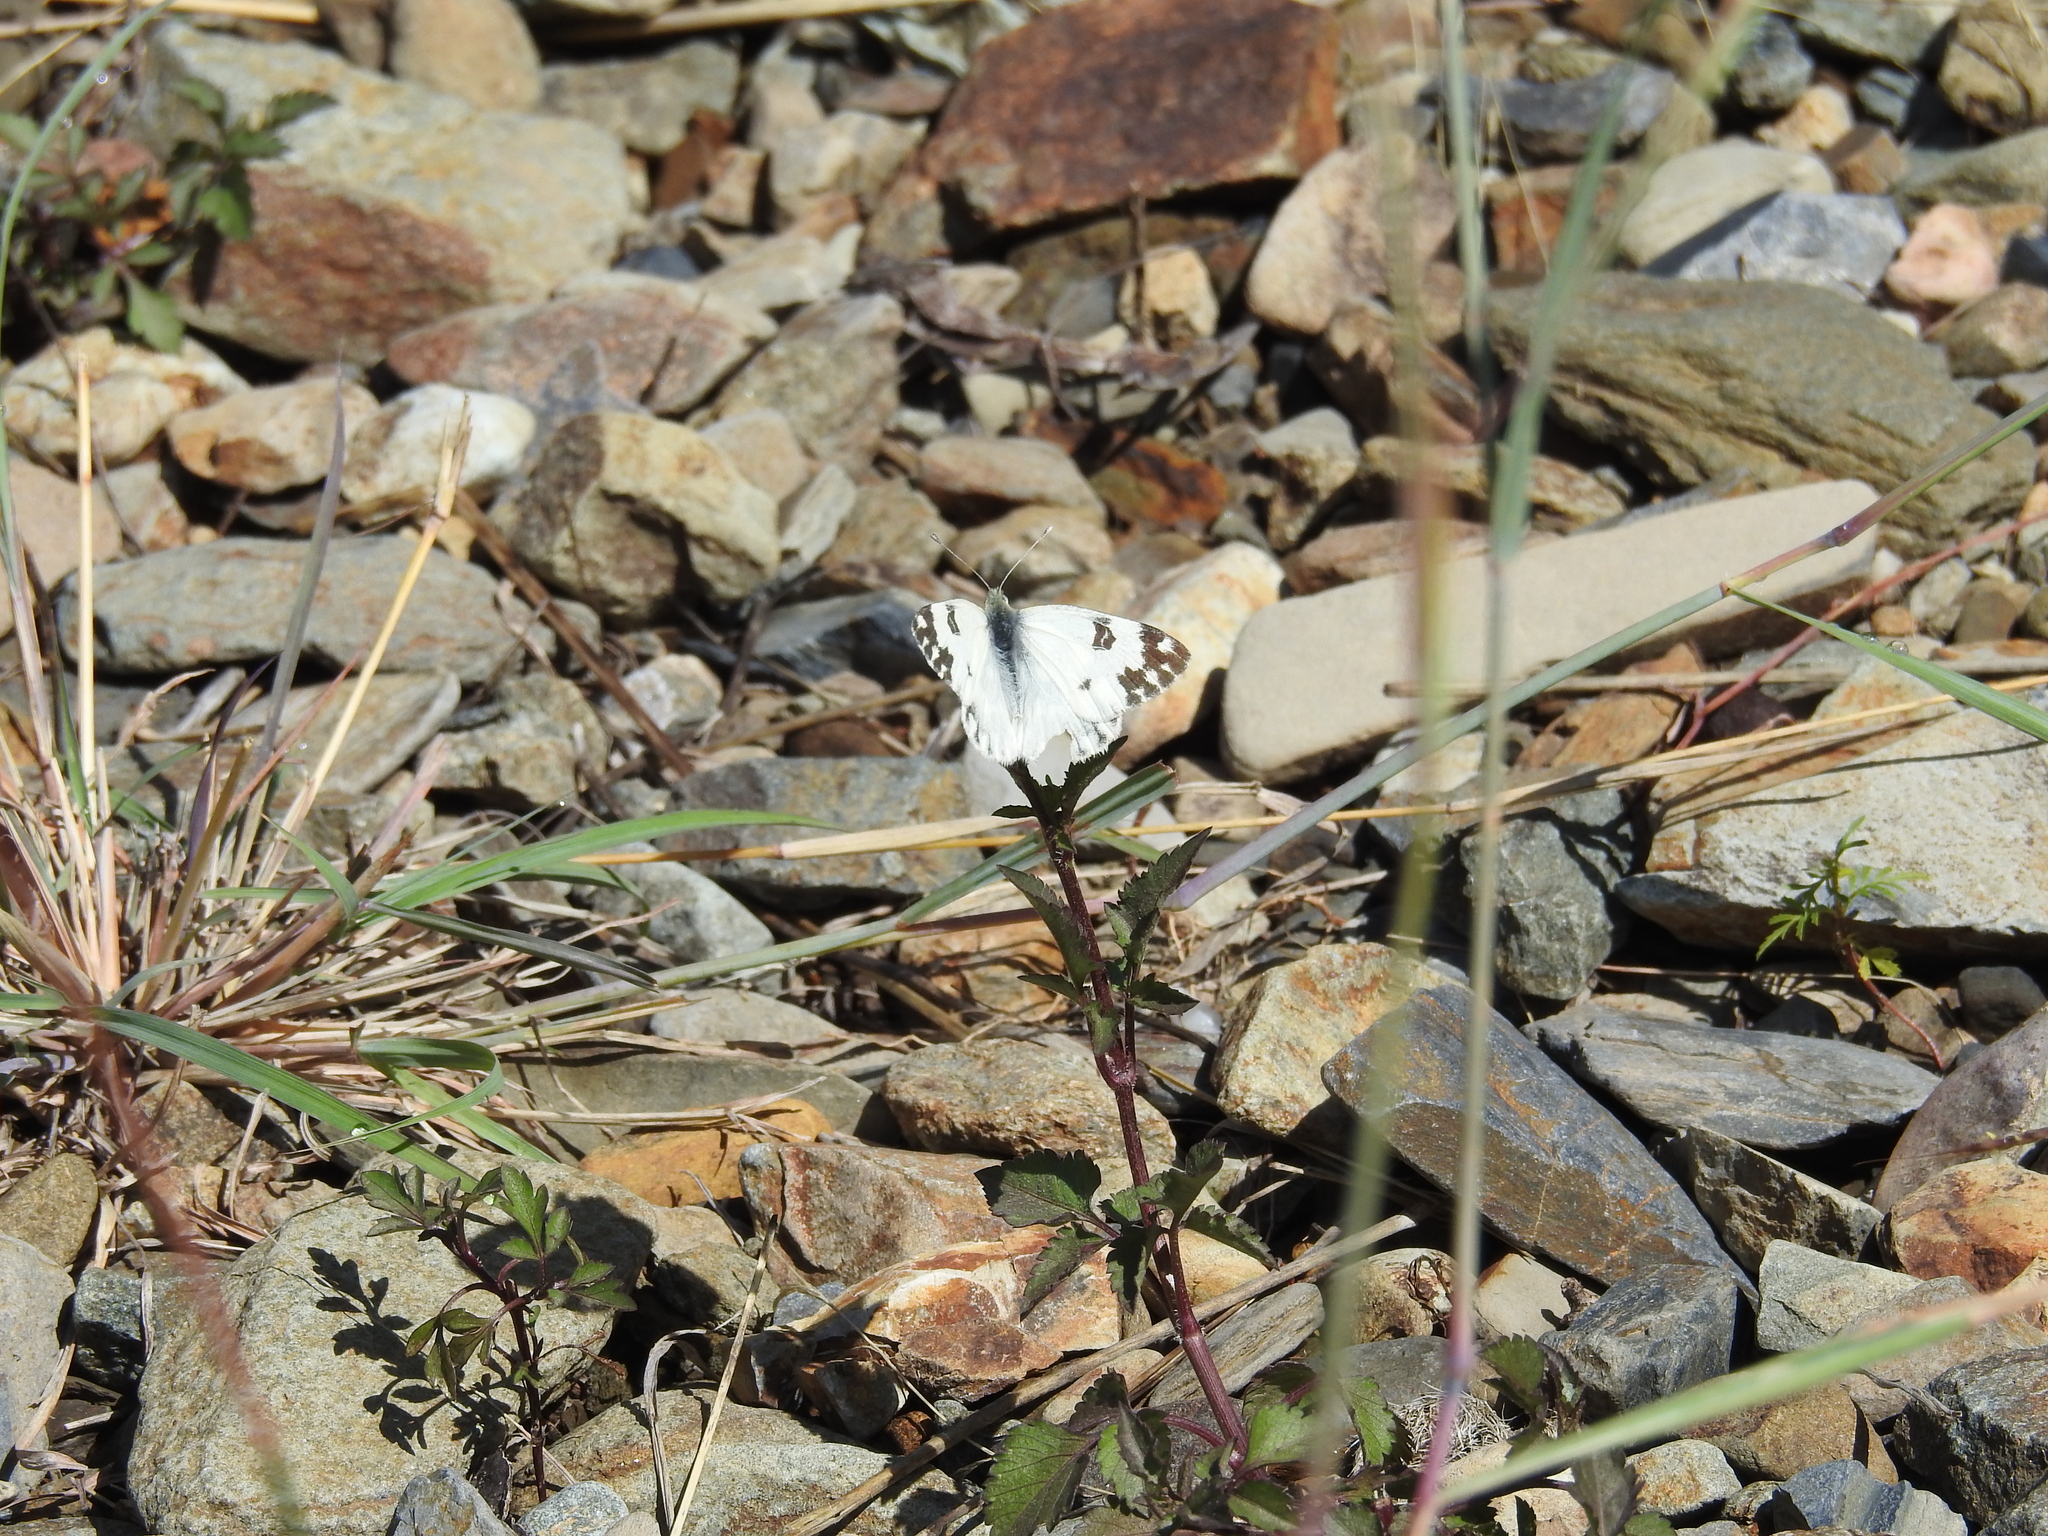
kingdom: Animalia
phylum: Arthropoda
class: Insecta
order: Lepidoptera
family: Pieridae
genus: Pontia
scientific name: Pontia daplidice
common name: Bath white
